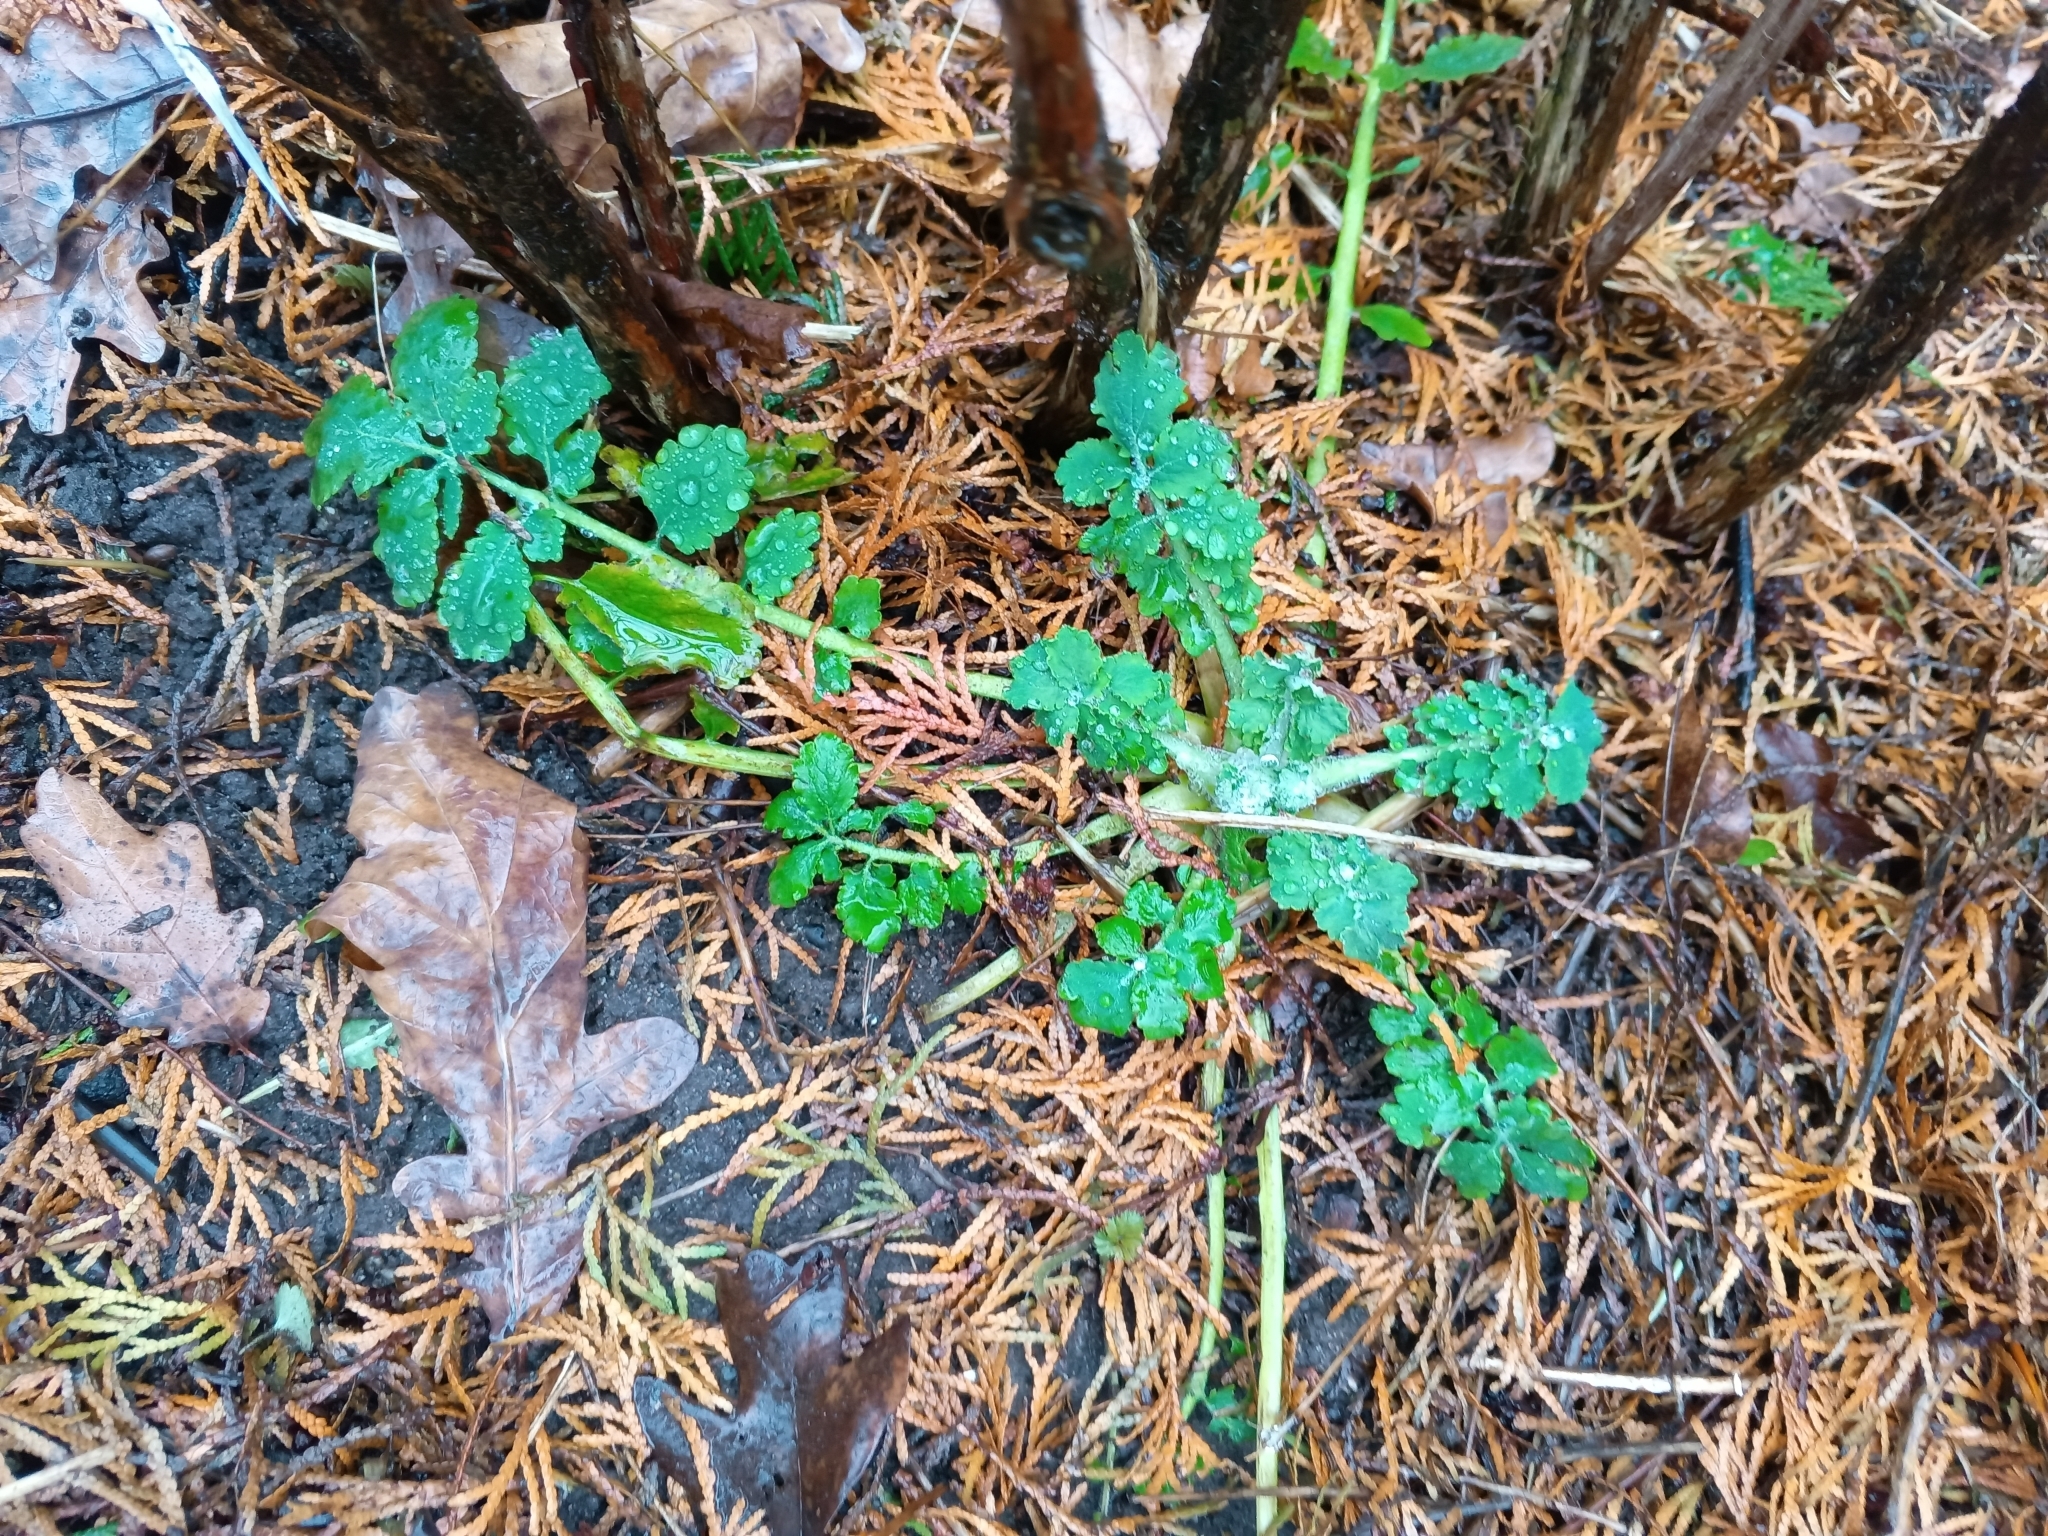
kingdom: Plantae
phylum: Tracheophyta
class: Magnoliopsida
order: Ranunculales
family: Papaveraceae
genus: Chelidonium
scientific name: Chelidonium majus
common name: Greater celandine
